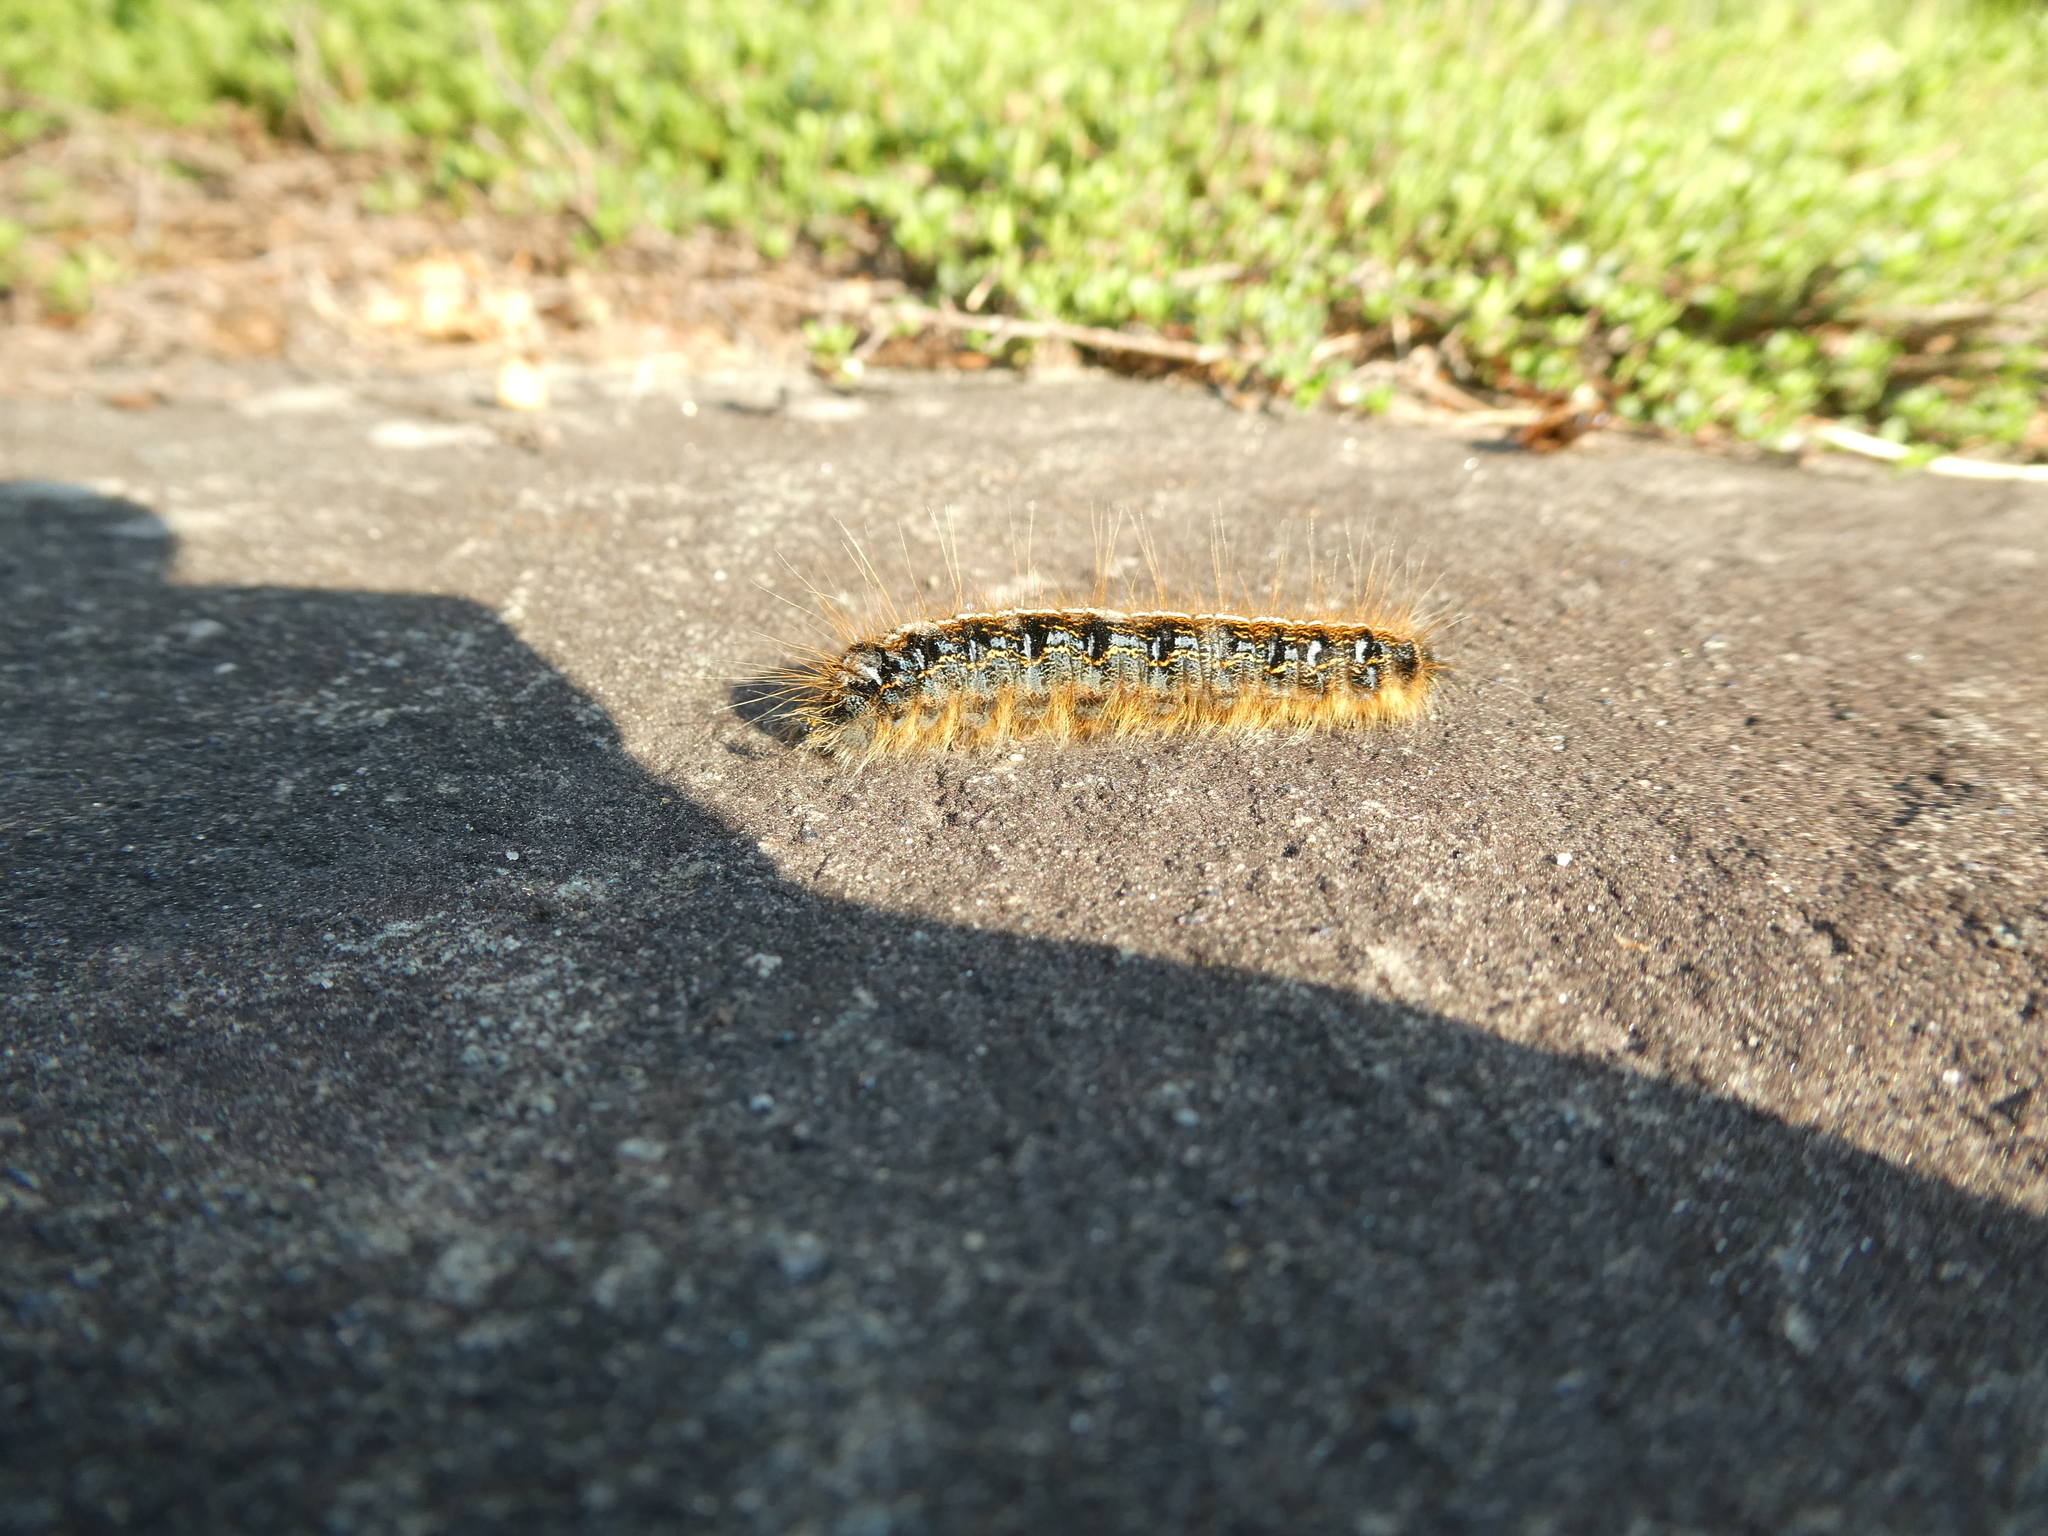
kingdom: Animalia
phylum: Arthropoda
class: Insecta
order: Lepidoptera
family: Lasiocampidae
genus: Malacosoma
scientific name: Malacosoma americana
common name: Eastern tent caterpillar moth
